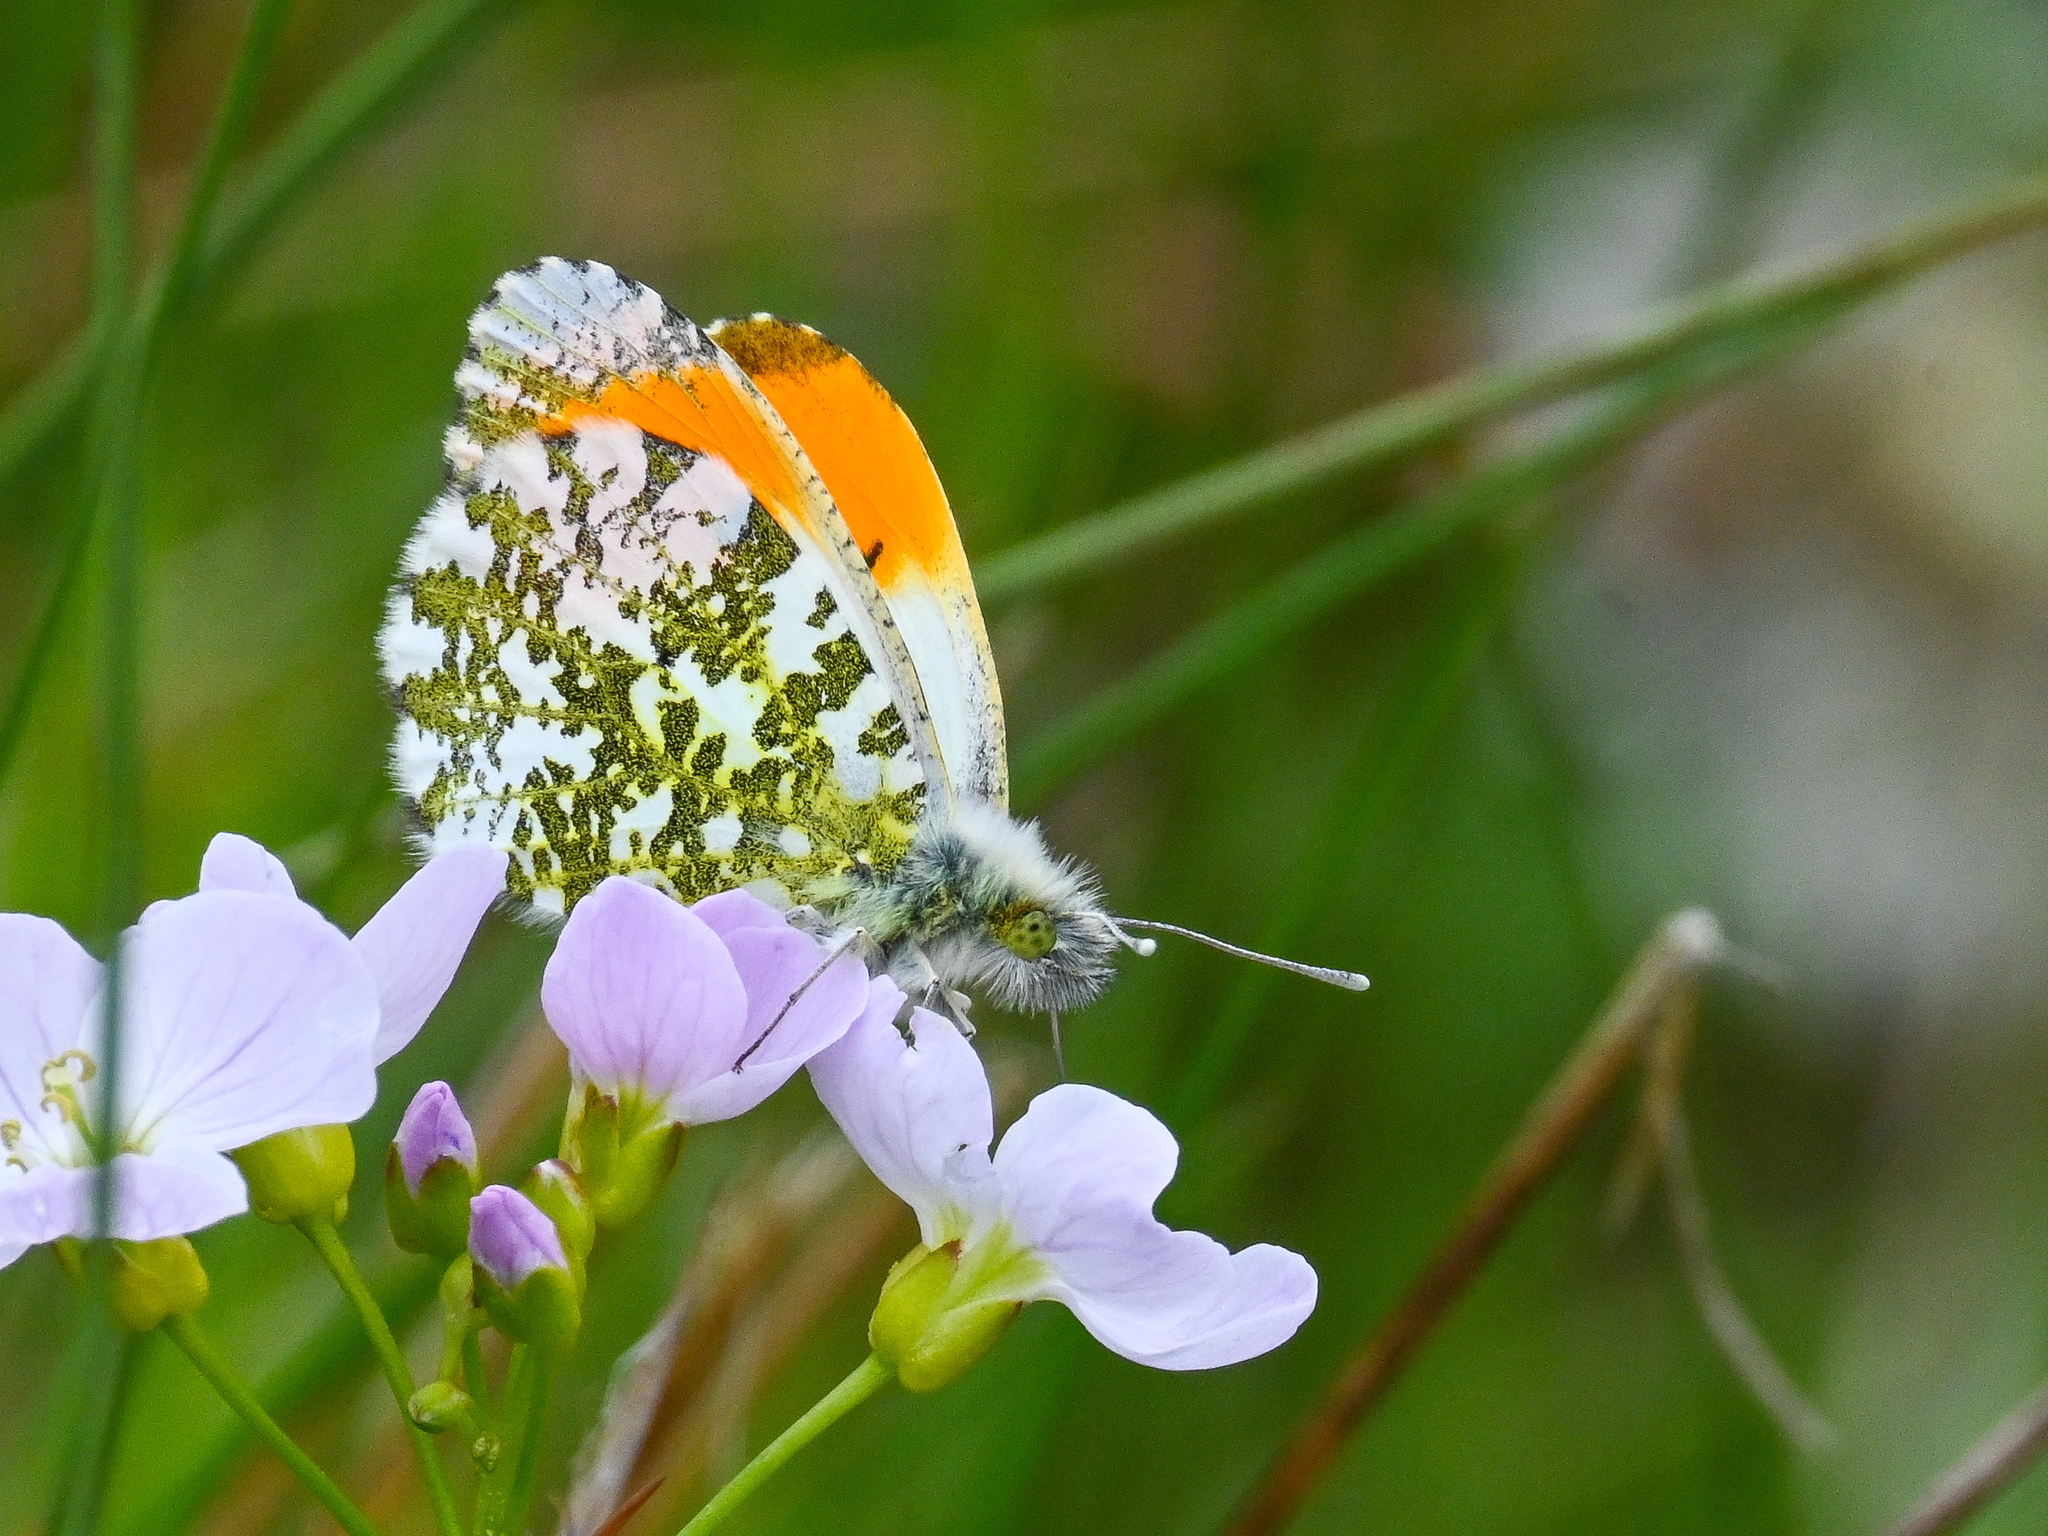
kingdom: Animalia
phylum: Arthropoda
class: Insecta
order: Lepidoptera
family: Pieridae
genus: Anthocharis
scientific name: Anthocharis cardamines
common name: Orange-tip
